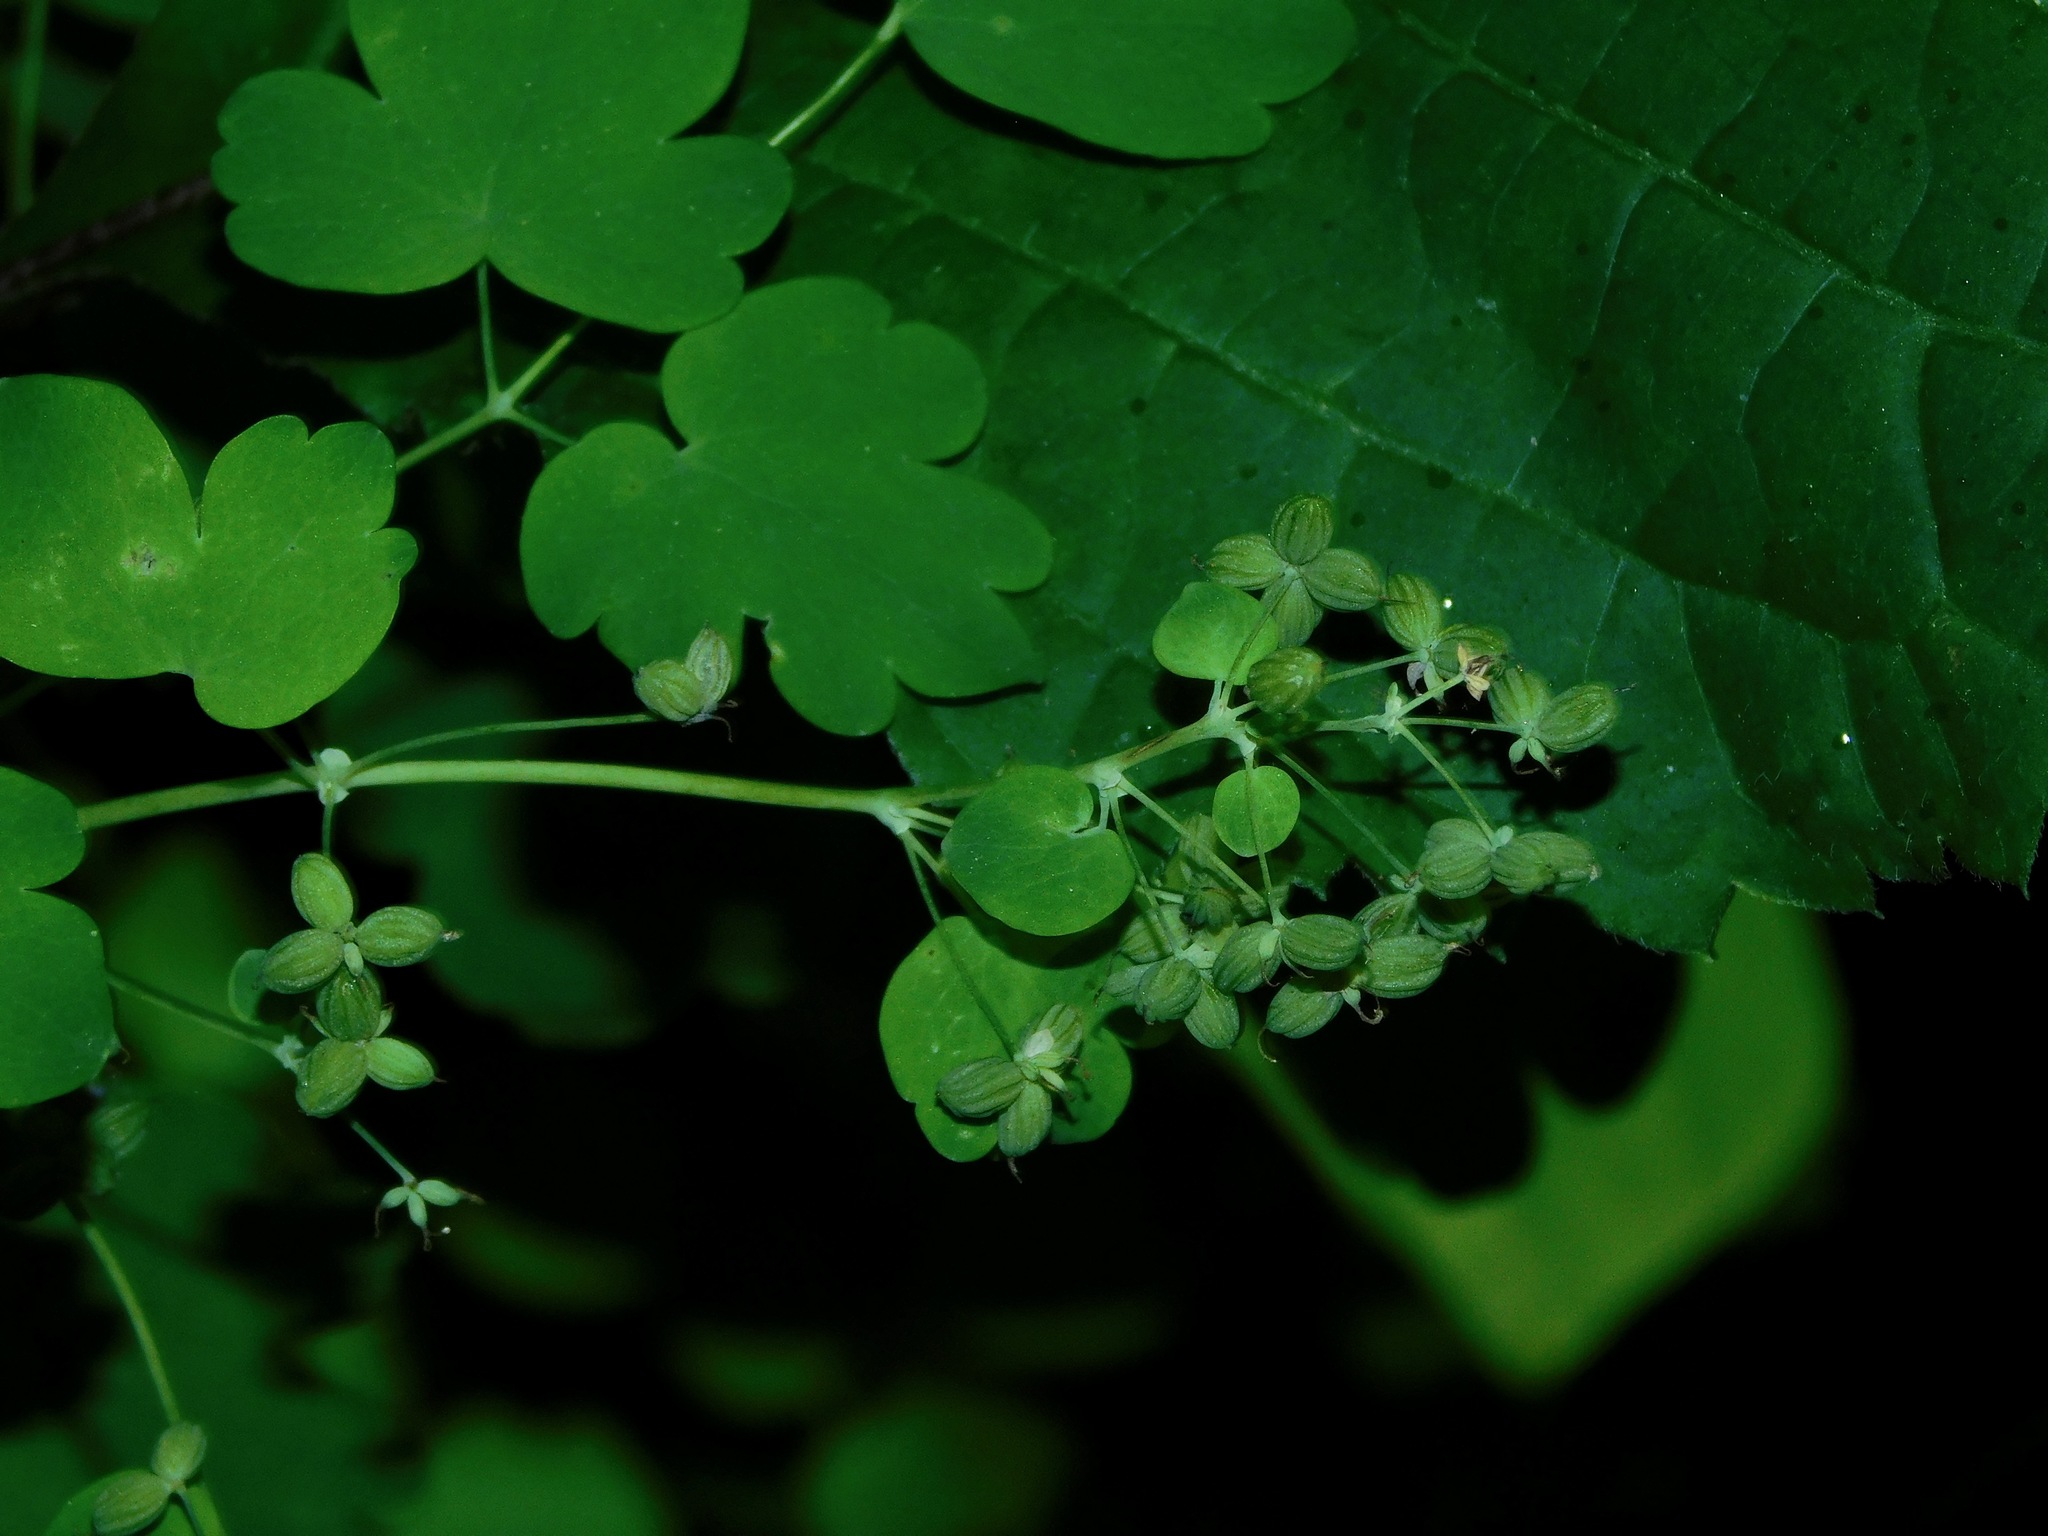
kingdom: Plantae
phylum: Tracheophyta
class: Magnoliopsida
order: Ranunculales
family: Ranunculaceae
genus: Thalictrum
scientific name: Thalictrum coriaceum
